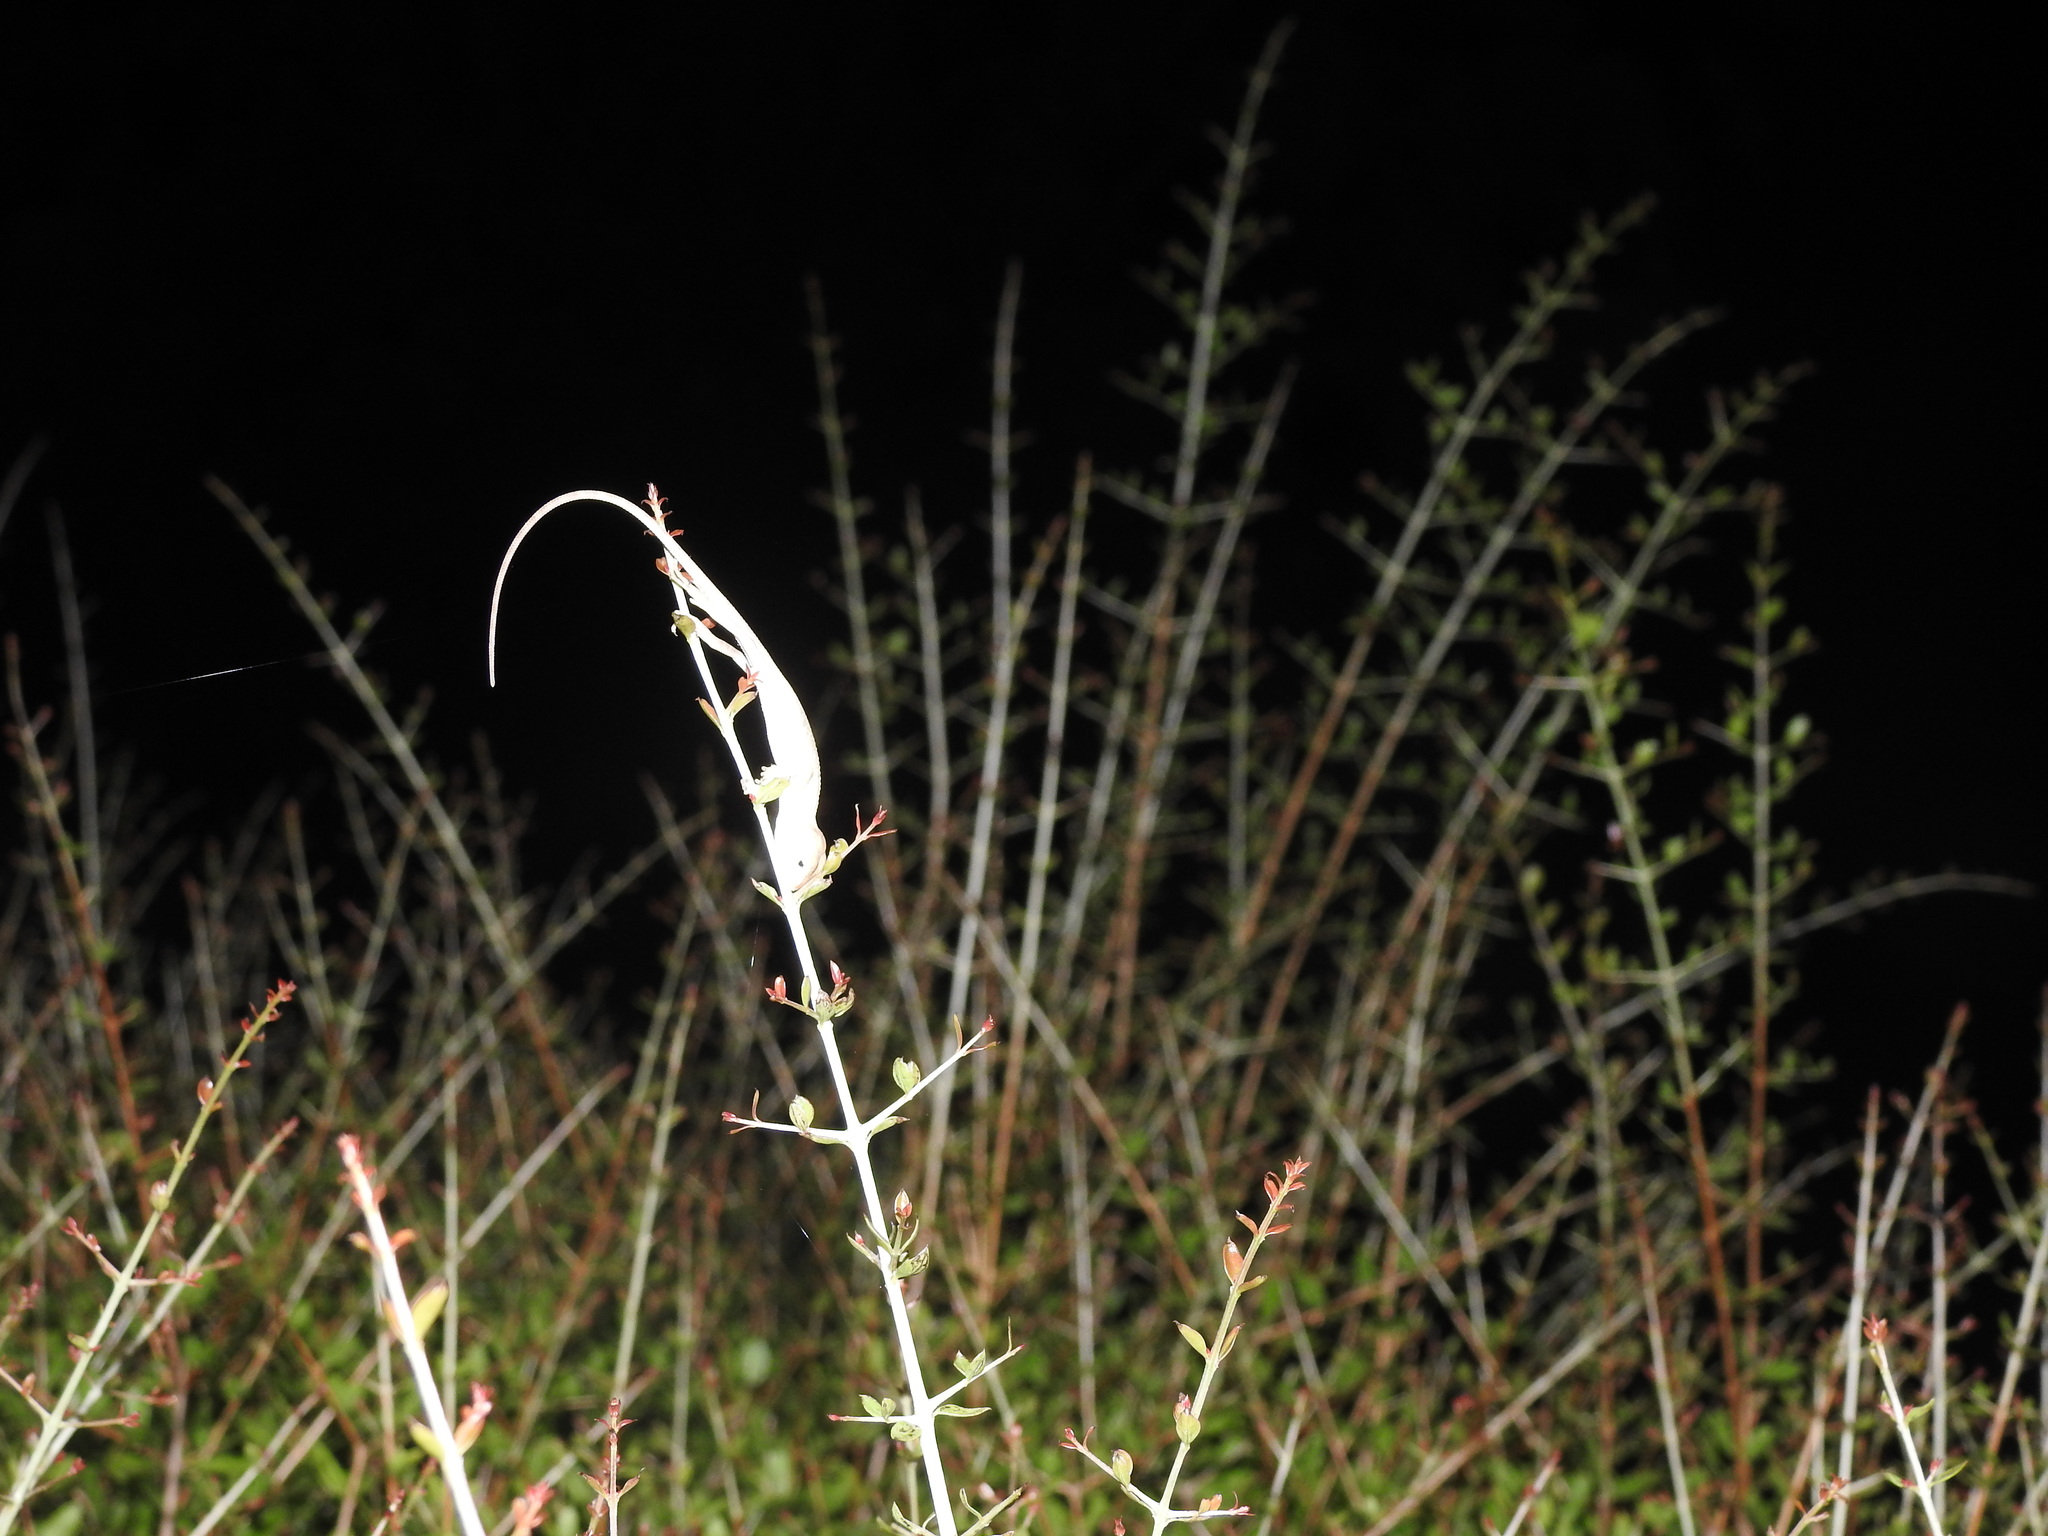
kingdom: Animalia
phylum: Chordata
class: Squamata
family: Agamidae
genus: Calotes
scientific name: Calotes versicolor
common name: Oriental garden lizard
